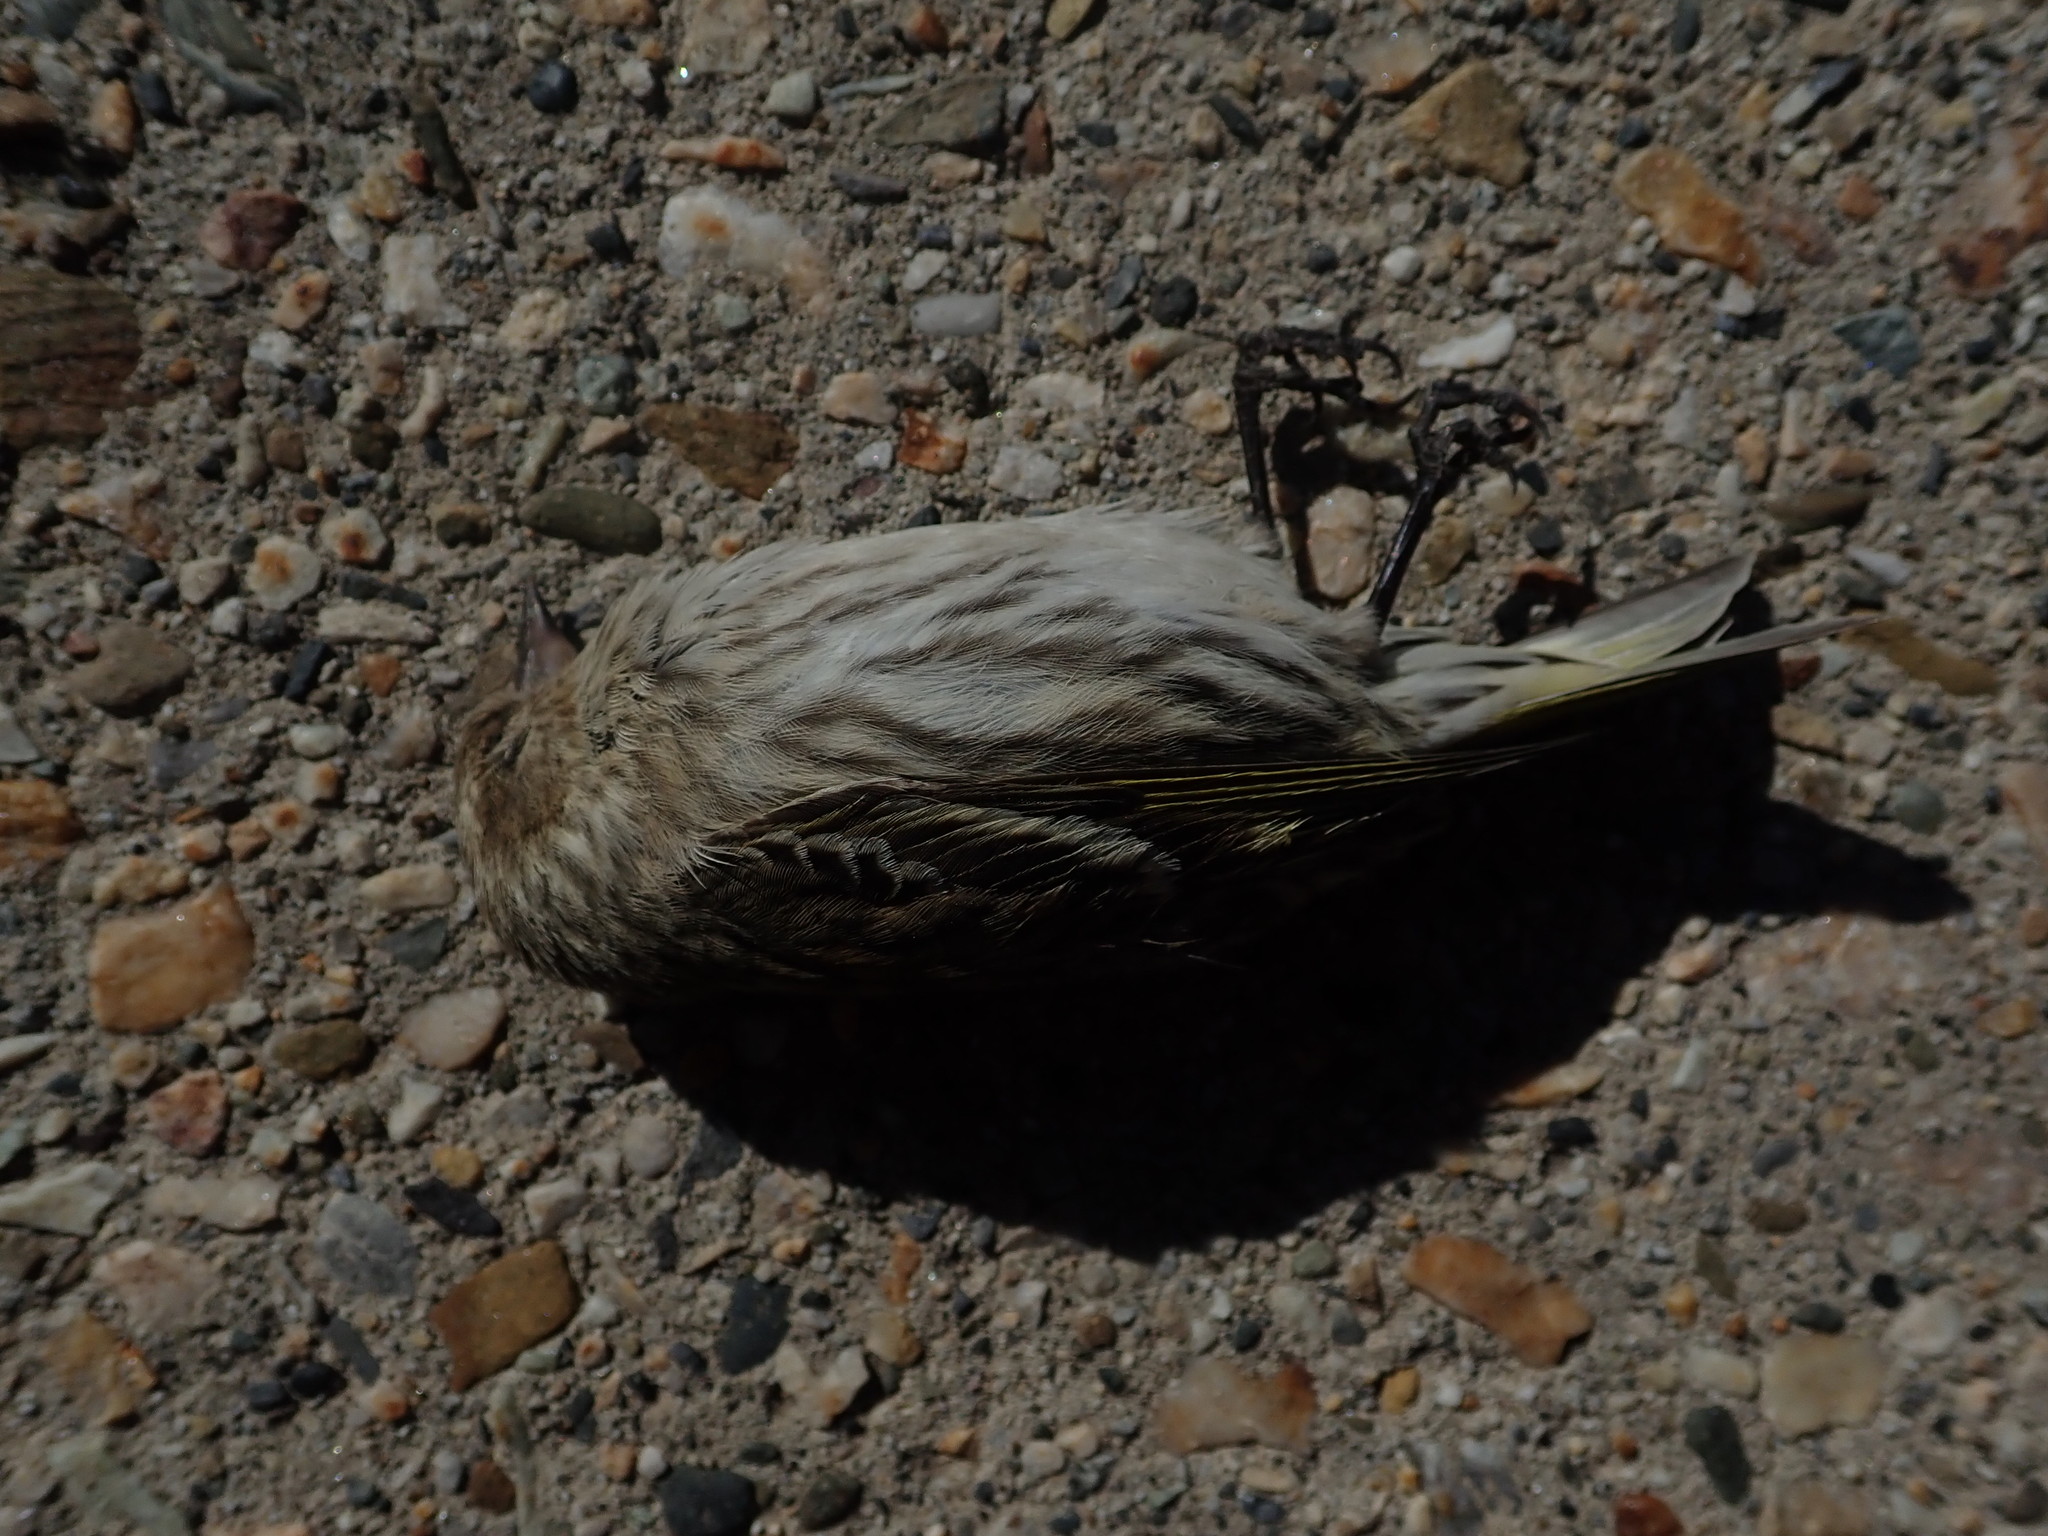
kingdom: Animalia
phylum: Chordata
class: Aves
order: Passeriformes
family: Fringillidae
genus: Haemorhous
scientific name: Haemorhous mexicanus
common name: House finch
